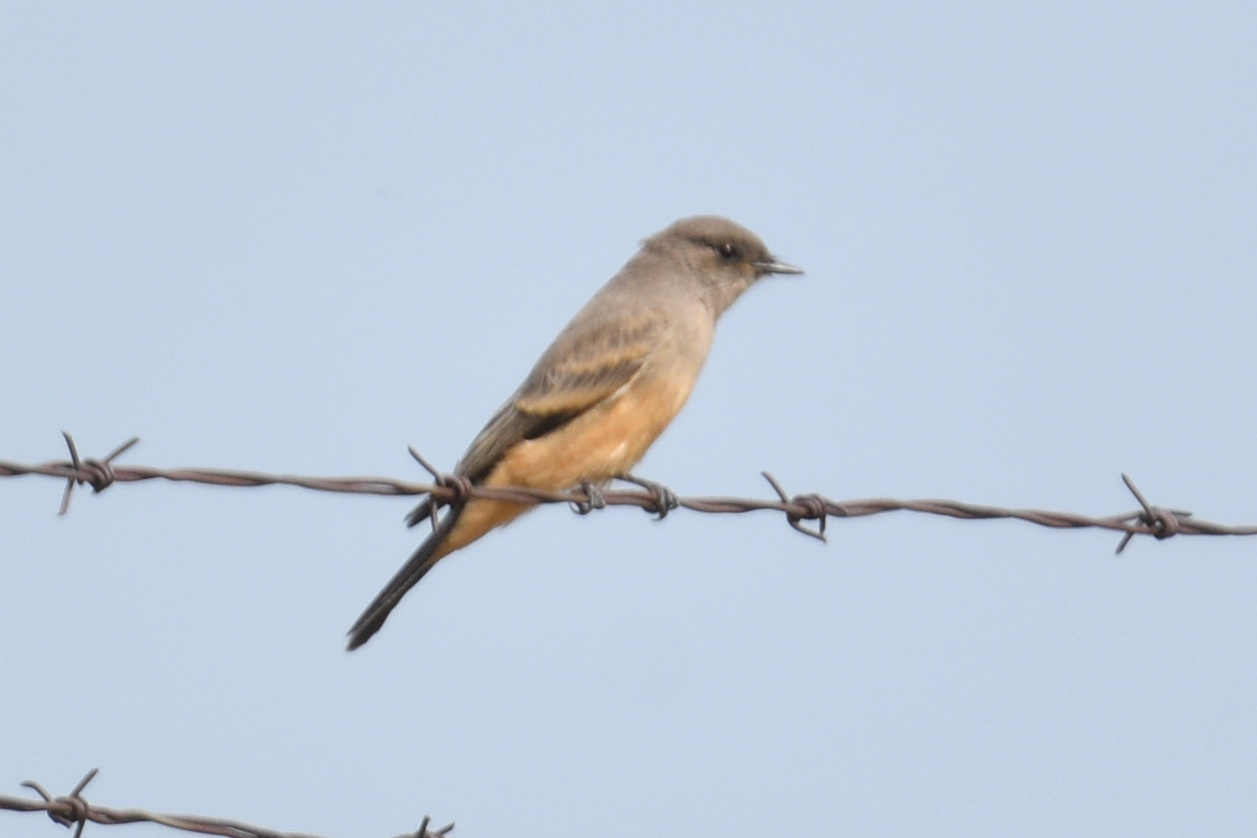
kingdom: Animalia
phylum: Chordata
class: Aves
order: Passeriformes
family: Tyrannidae
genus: Sayornis
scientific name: Sayornis saya
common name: Say's phoebe
